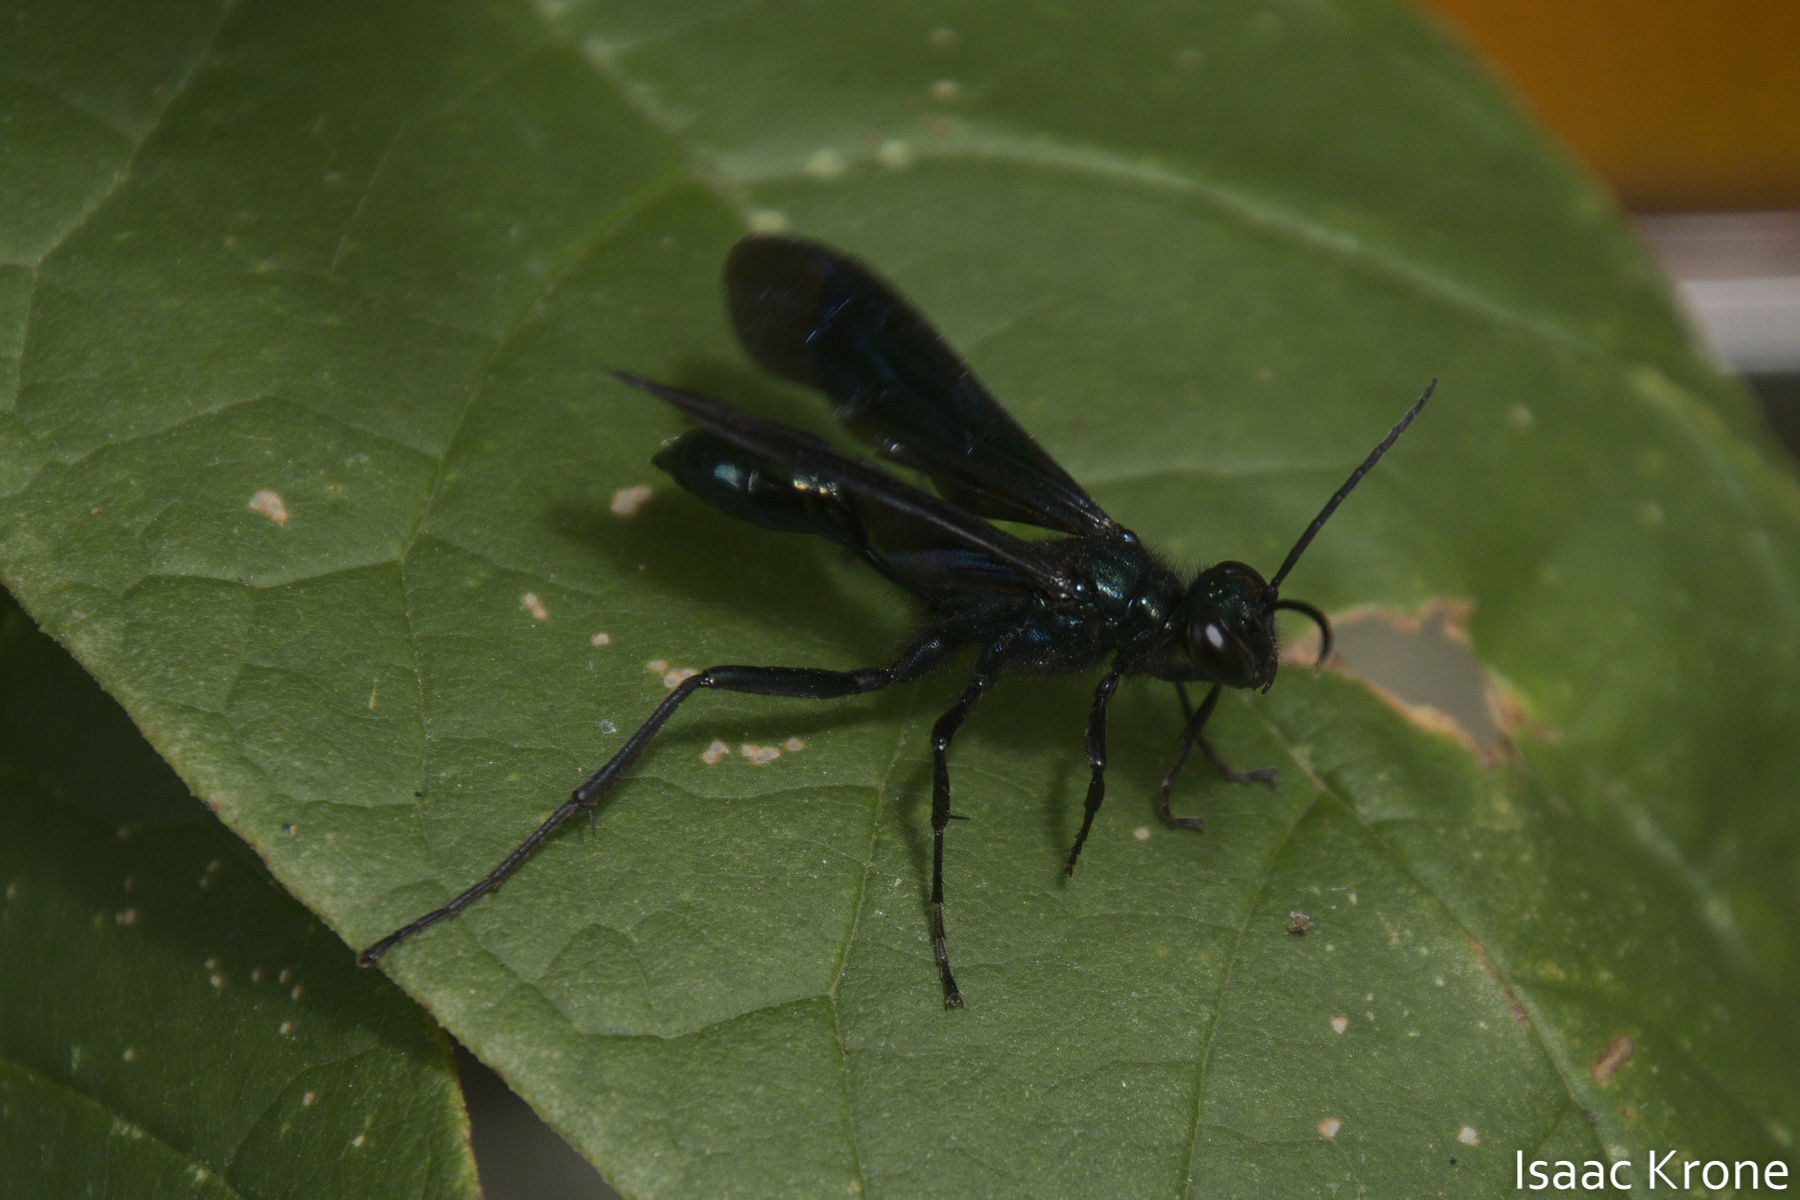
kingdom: Animalia
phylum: Arthropoda
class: Insecta
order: Hymenoptera
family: Sphecidae
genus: Chalybion
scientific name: Chalybion californicum
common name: Mud dauber
